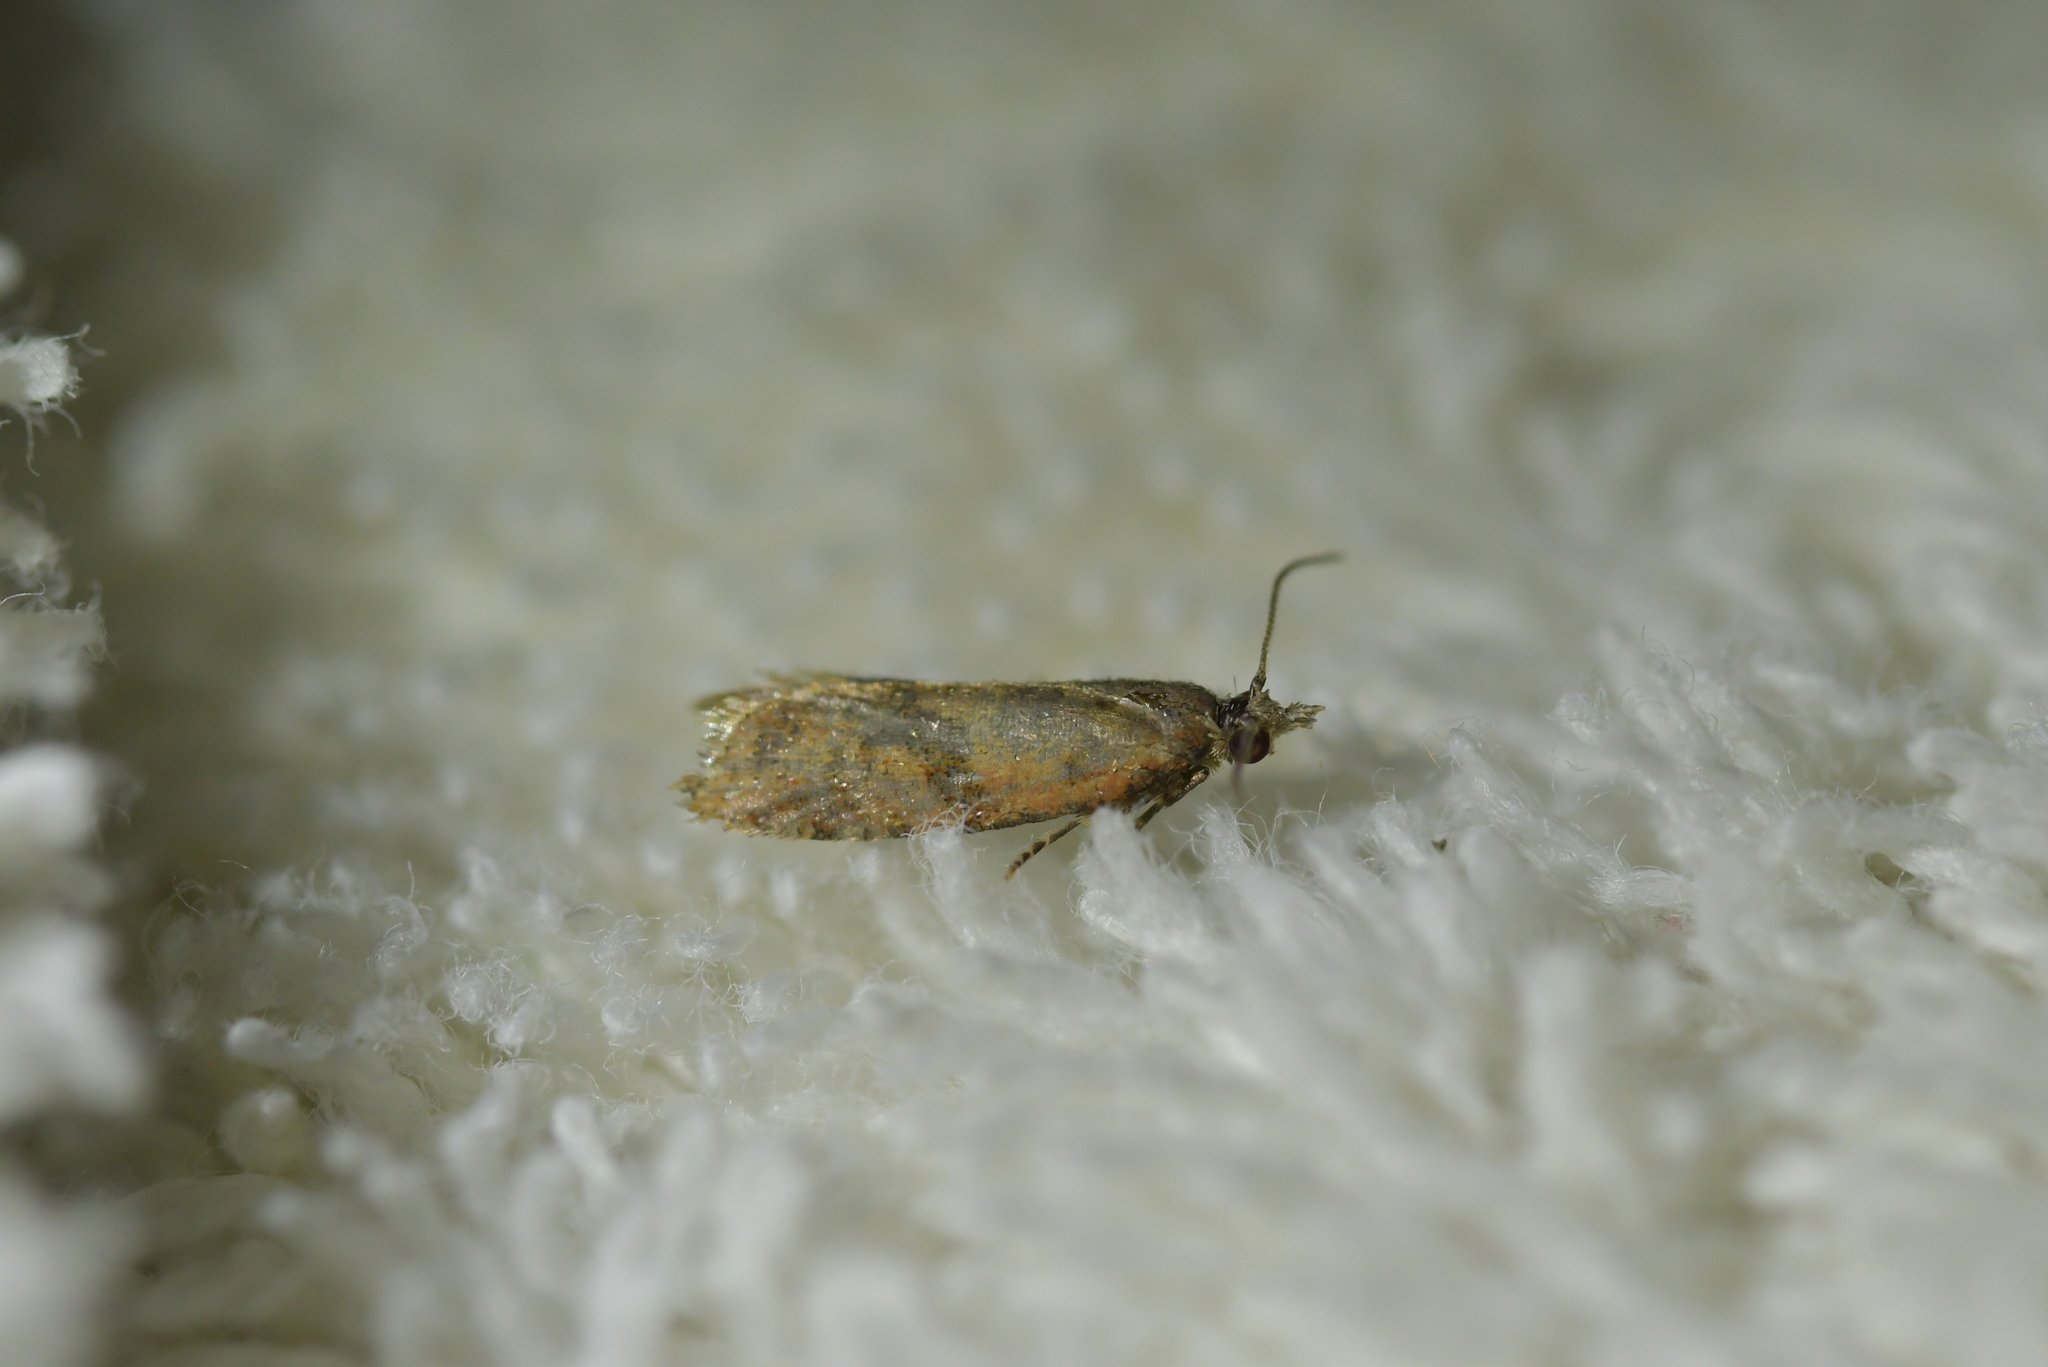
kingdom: Animalia
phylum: Arthropoda
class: Insecta
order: Lepidoptera
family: Tortricidae
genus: Capua
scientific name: Capua semiferana
